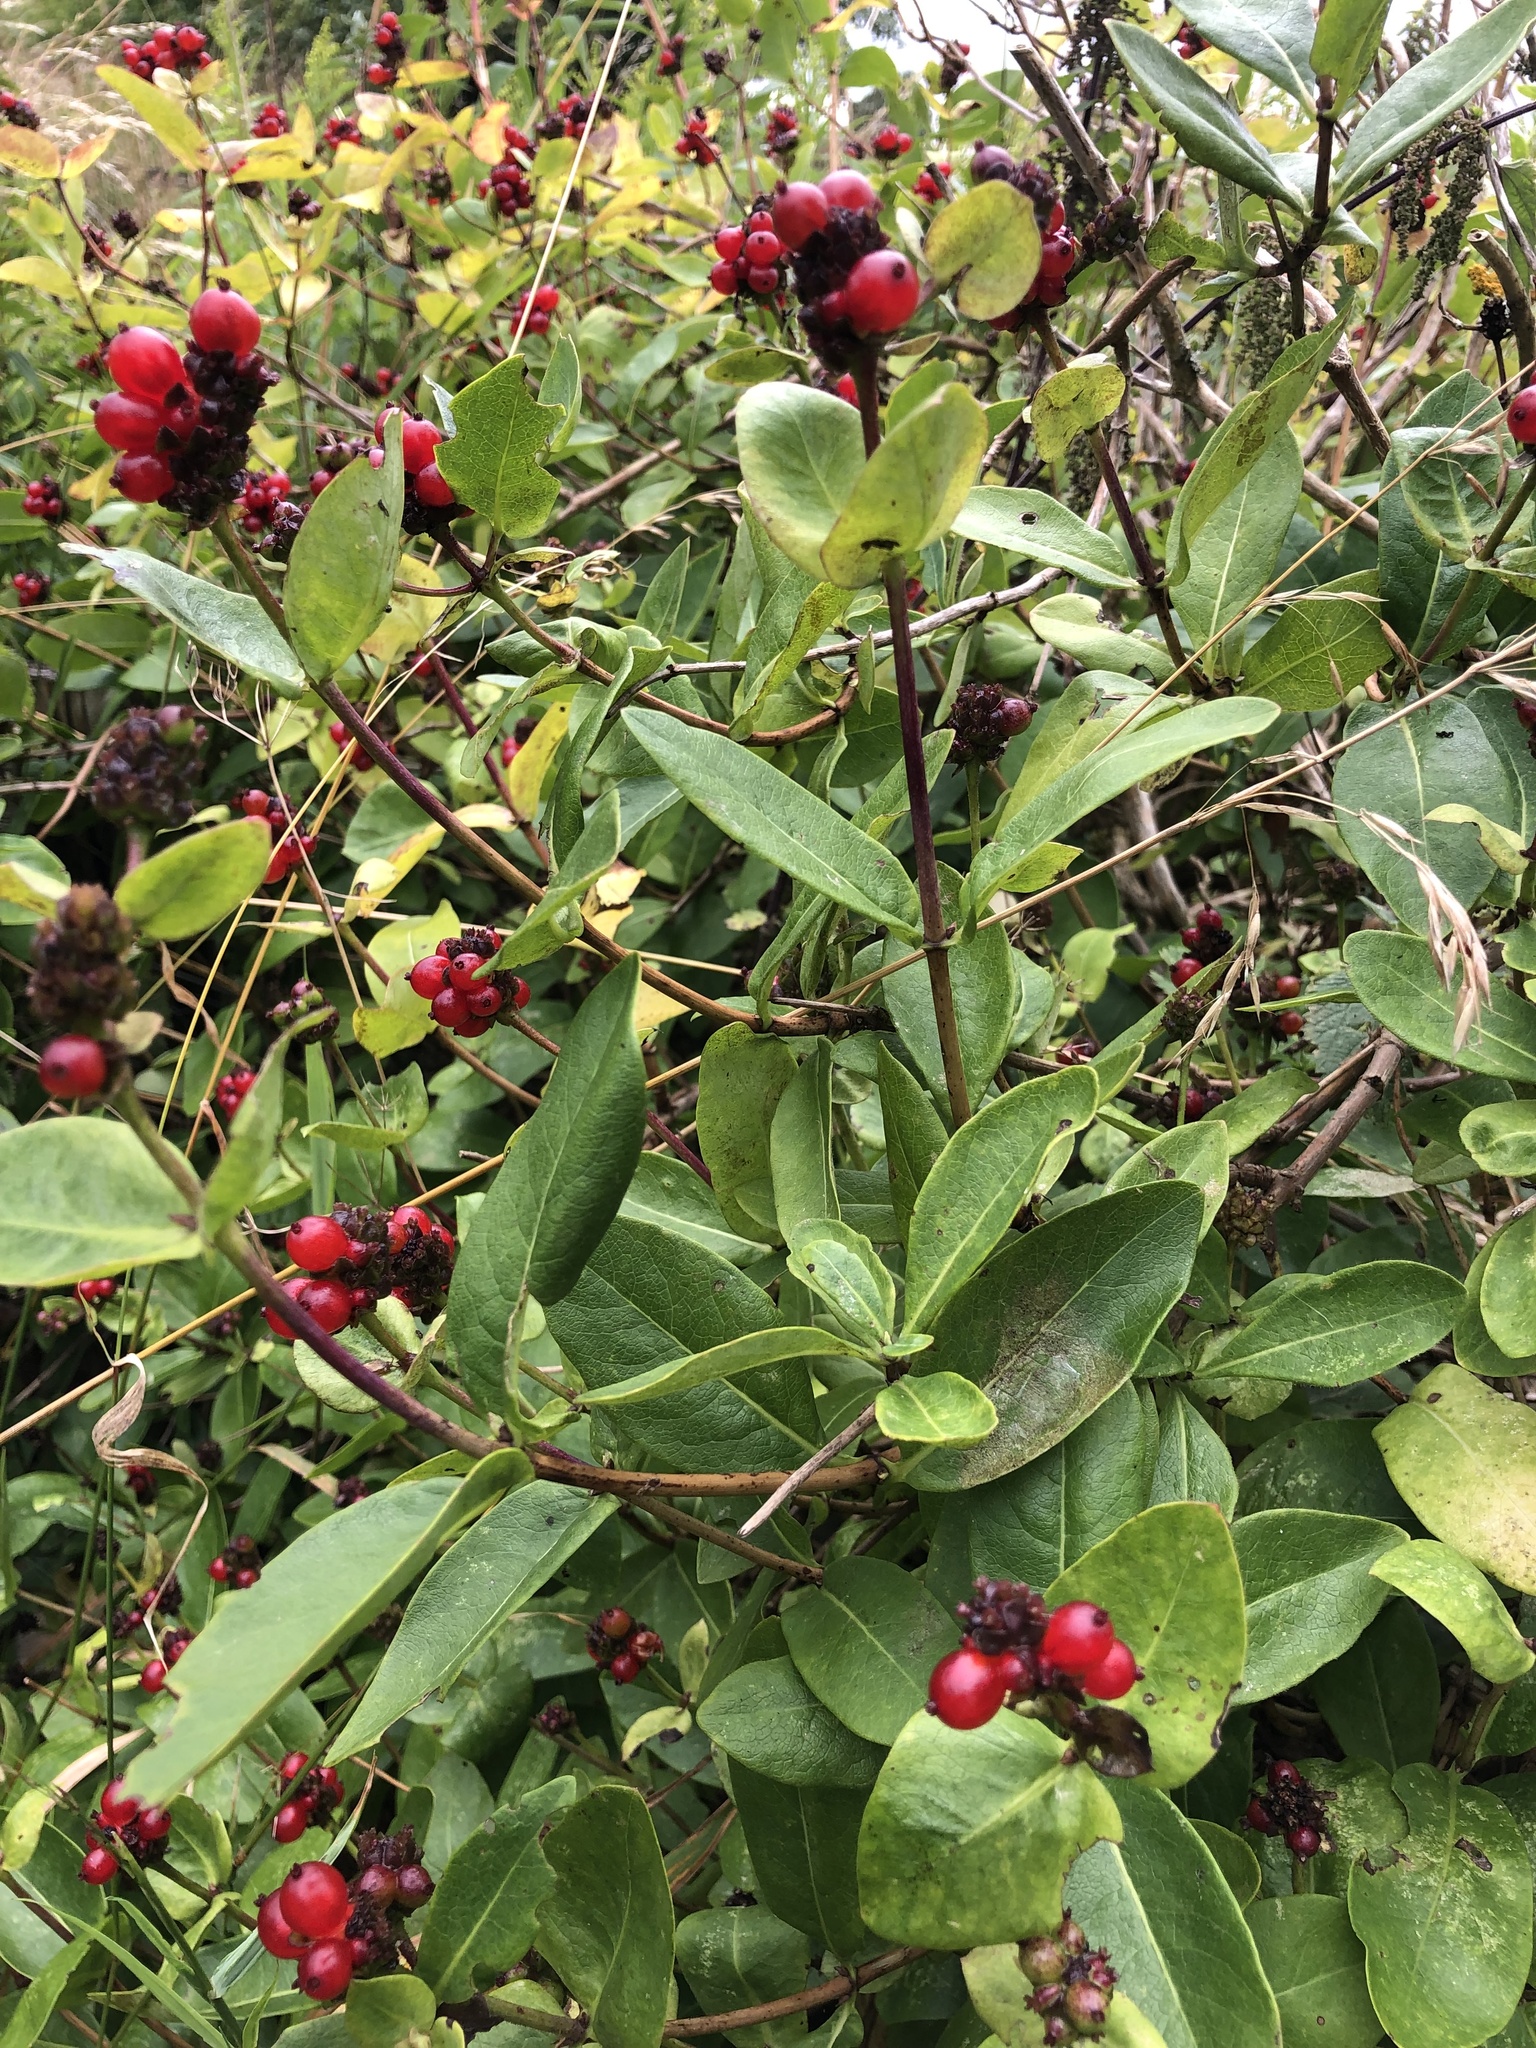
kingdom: Plantae
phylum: Tracheophyta
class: Magnoliopsida
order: Dipsacales
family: Caprifoliaceae
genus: Lonicera
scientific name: Lonicera periclymenum
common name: European honeysuckle
